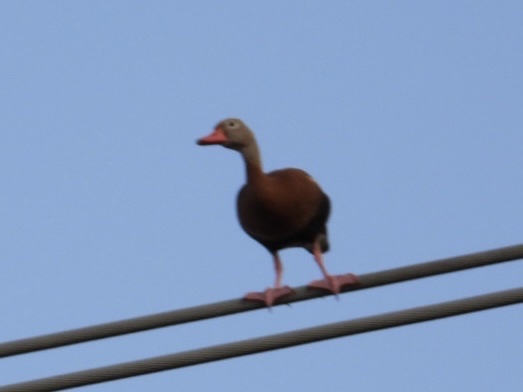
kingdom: Animalia
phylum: Chordata
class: Aves
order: Anseriformes
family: Anatidae
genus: Dendrocygna
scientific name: Dendrocygna autumnalis
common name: Black-bellied whistling duck
